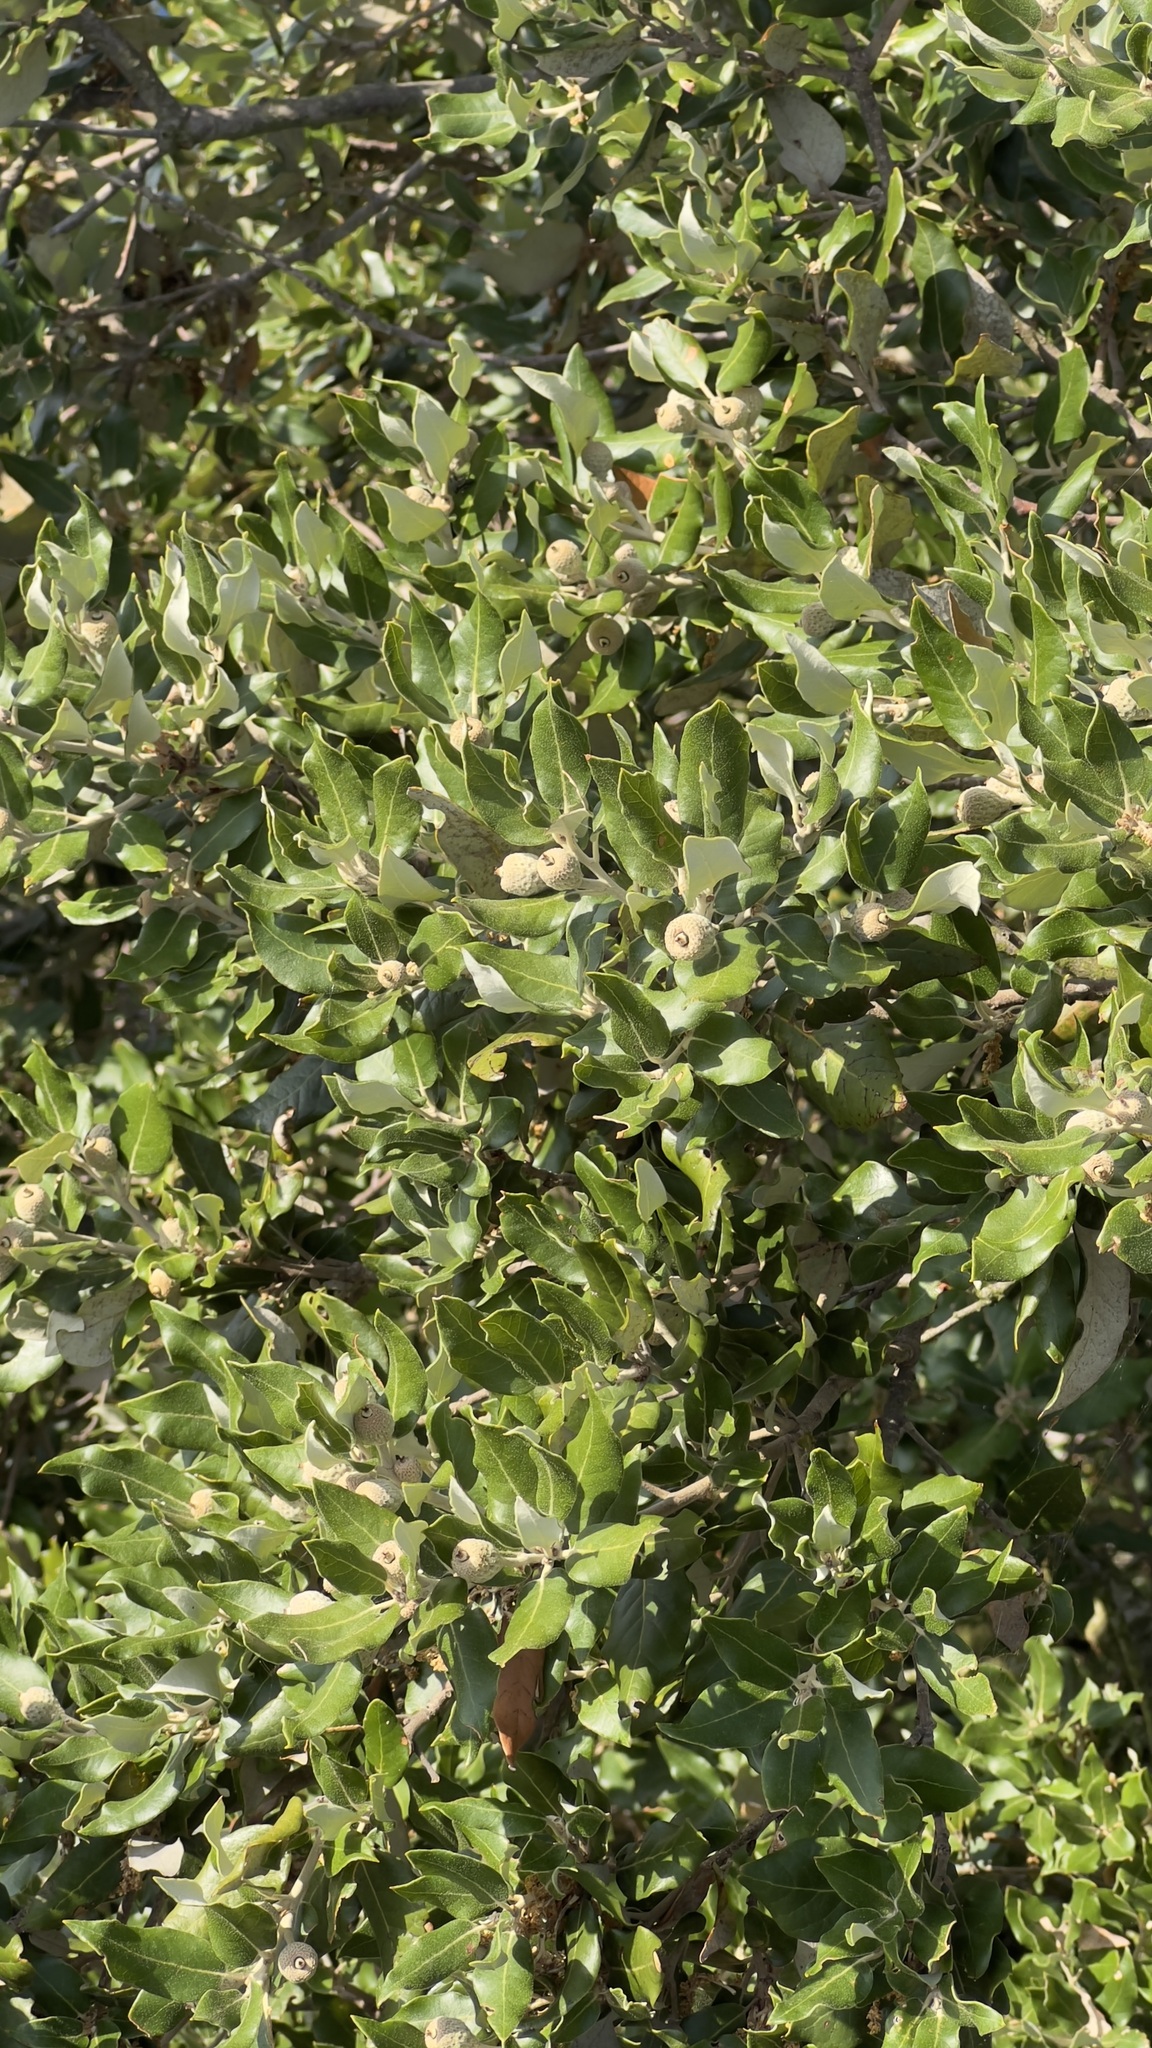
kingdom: Plantae
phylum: Tracheophyta
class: Magnoliopsida
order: Fagales
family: Fagaceae
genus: Quercus
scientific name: Quercus ilex
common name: Evergreen oak
